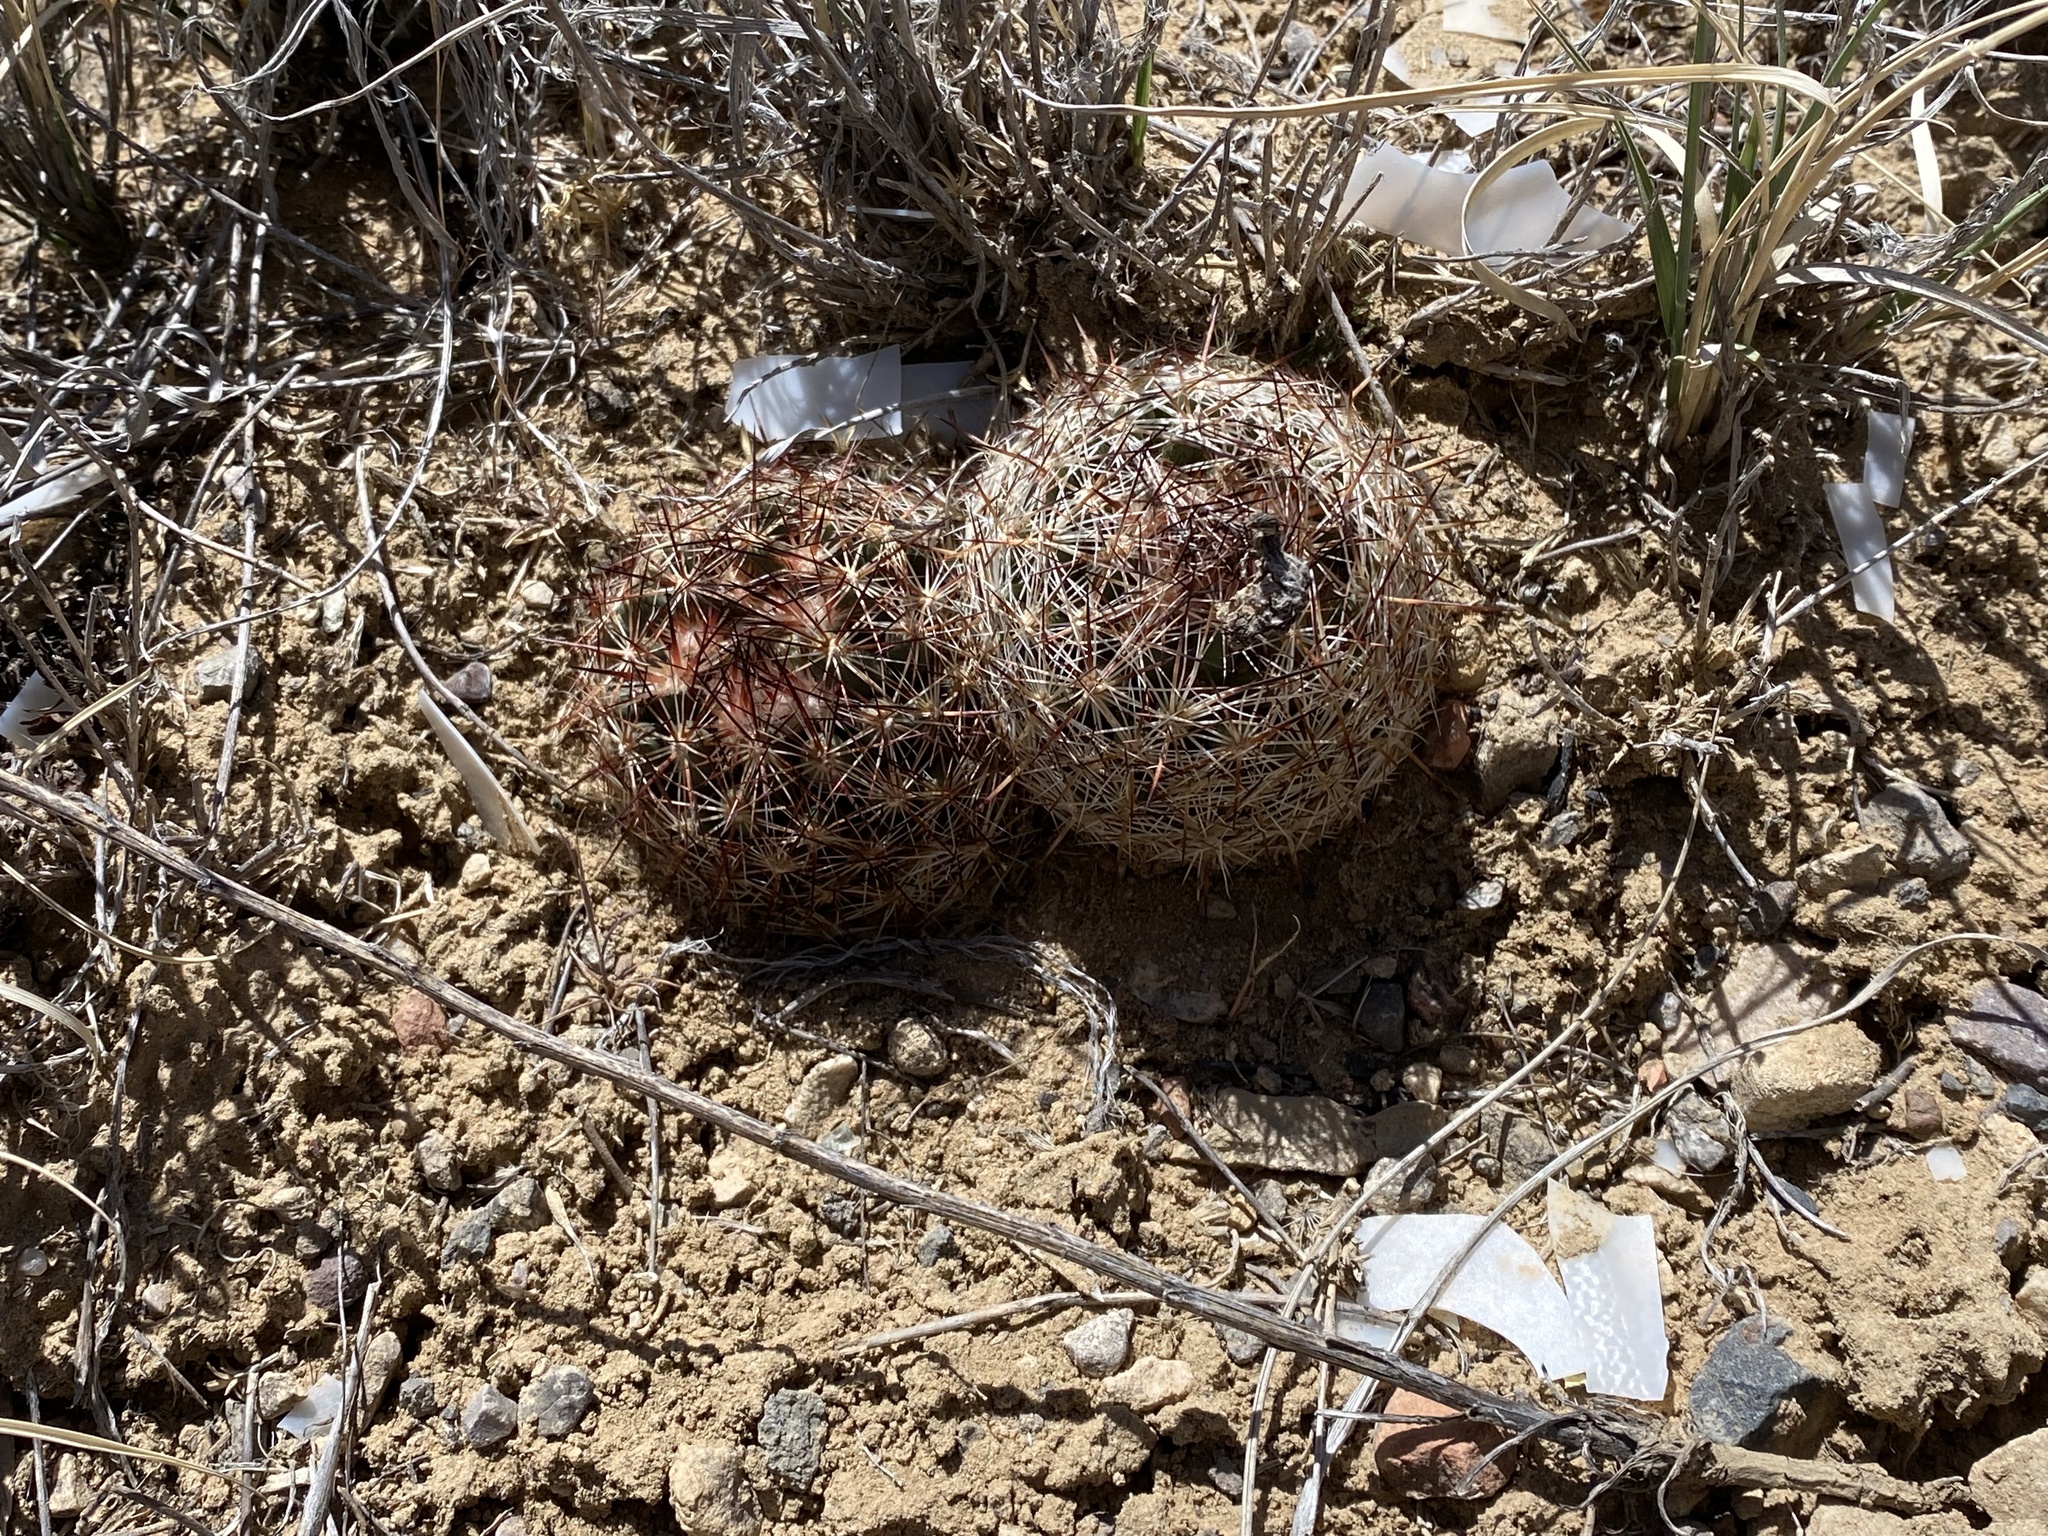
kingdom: Plantae
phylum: Tracheophyta
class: Magnoliopsida
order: Caryophyllales
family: Cactaceae
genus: Pelecyphora
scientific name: Pelecyphora vivipara
